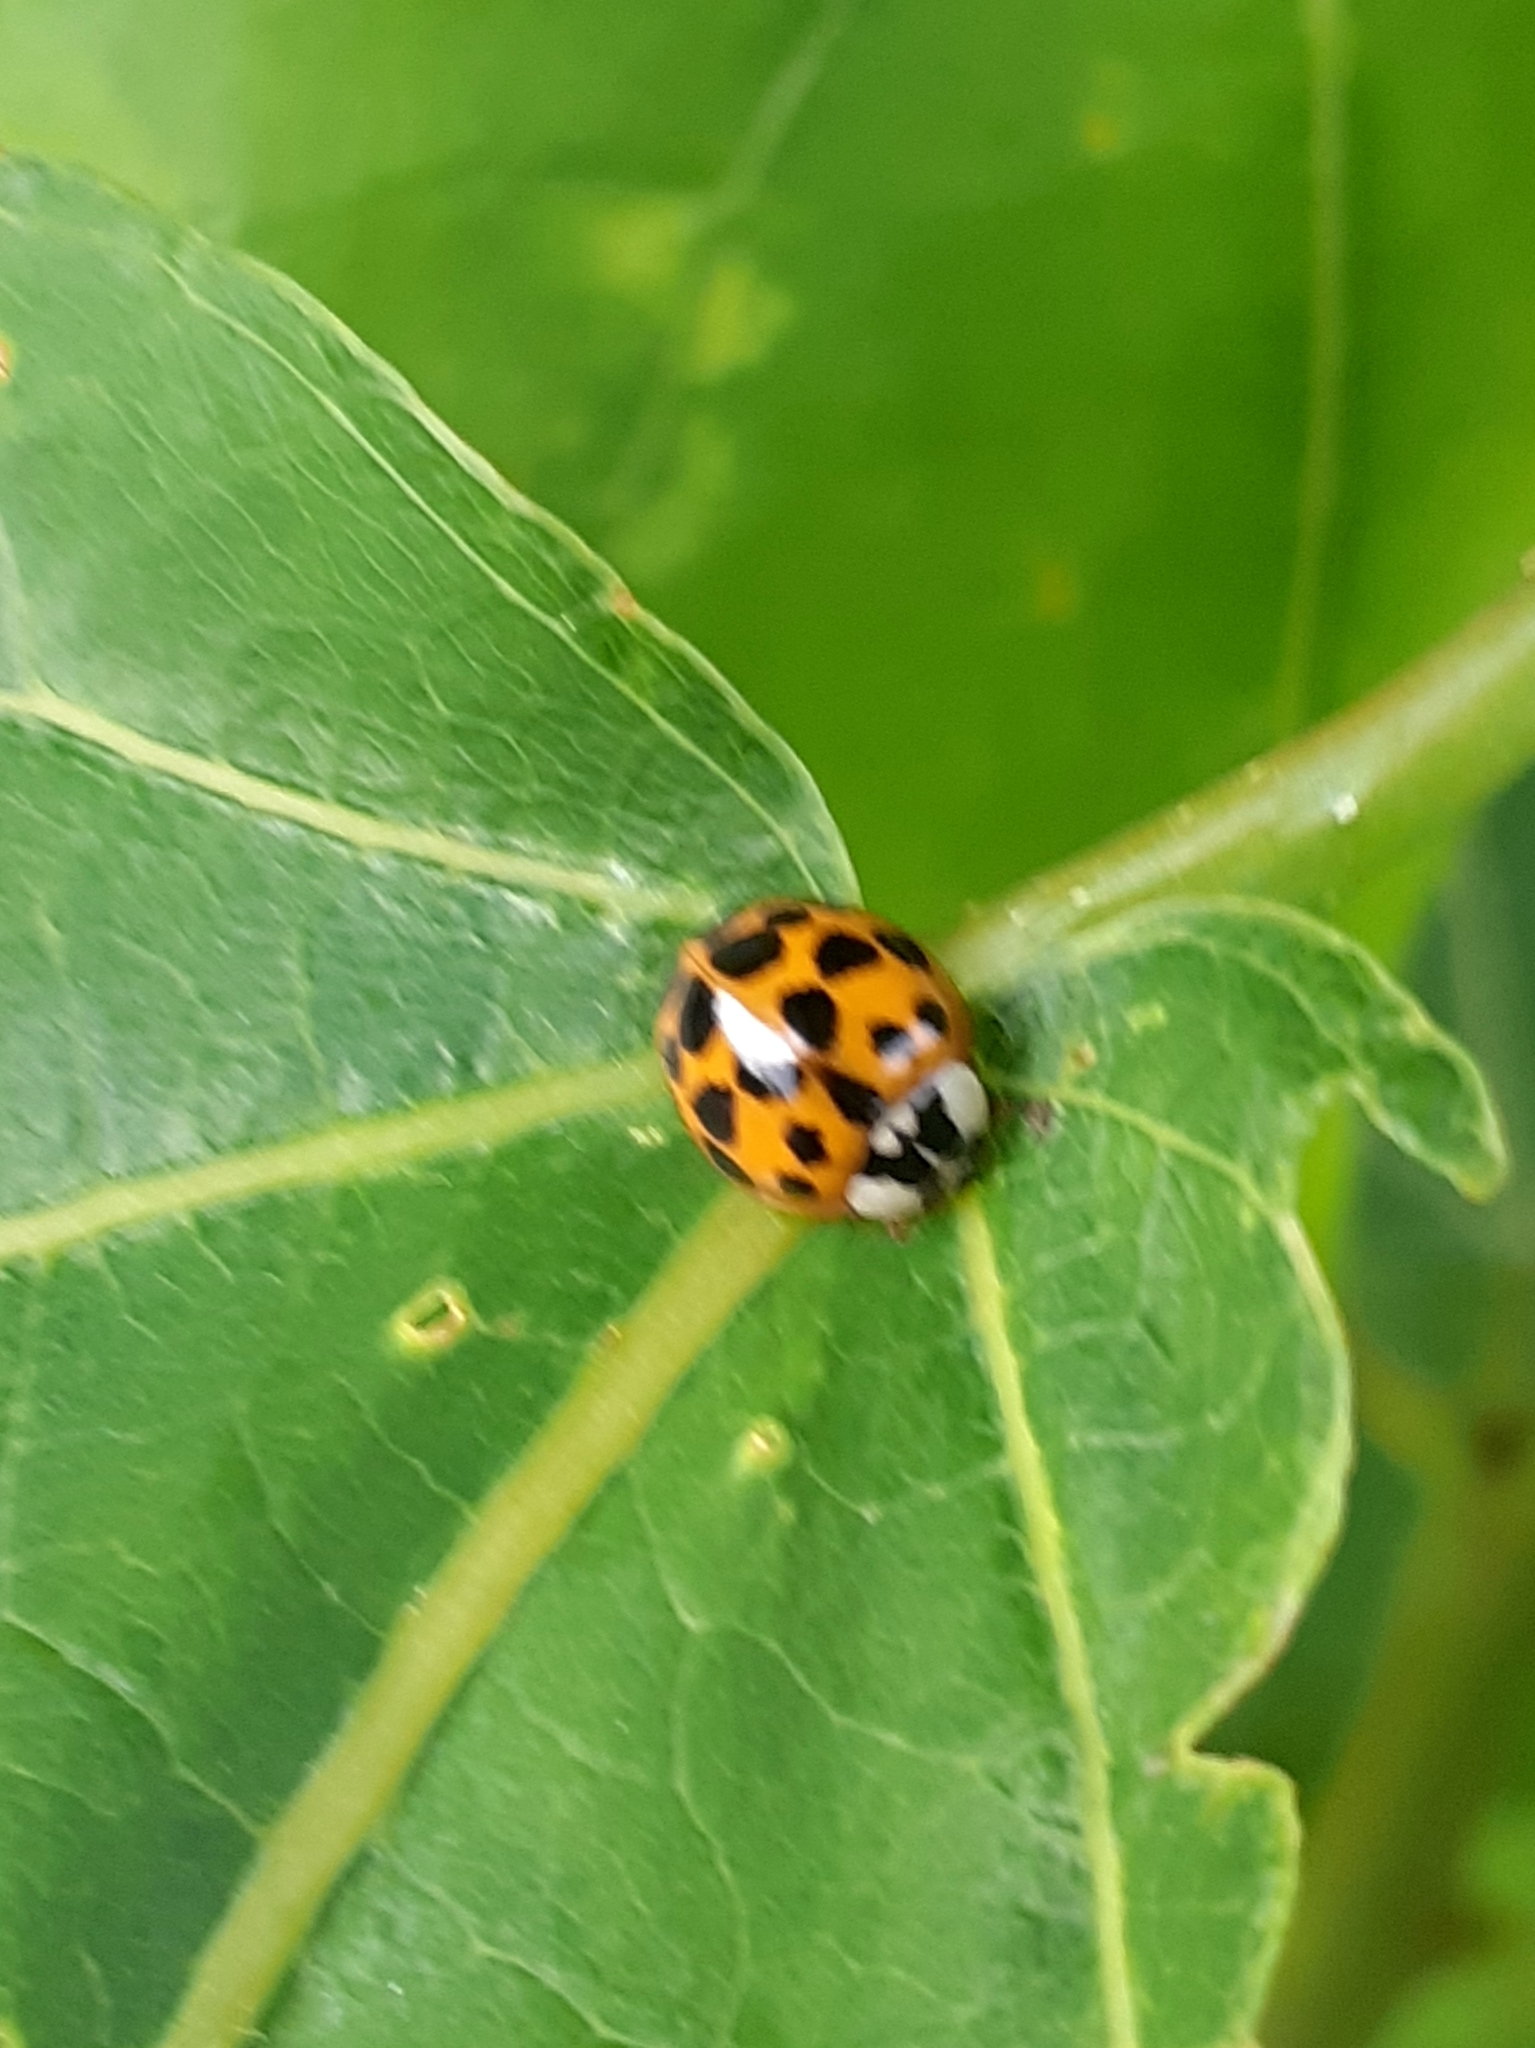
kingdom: Animalia
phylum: Arthropoda
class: Insecta
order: Coleoptera
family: Coccinellidae
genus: Harmonia
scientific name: Harmonia axyridis
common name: Harlequin ladybird
